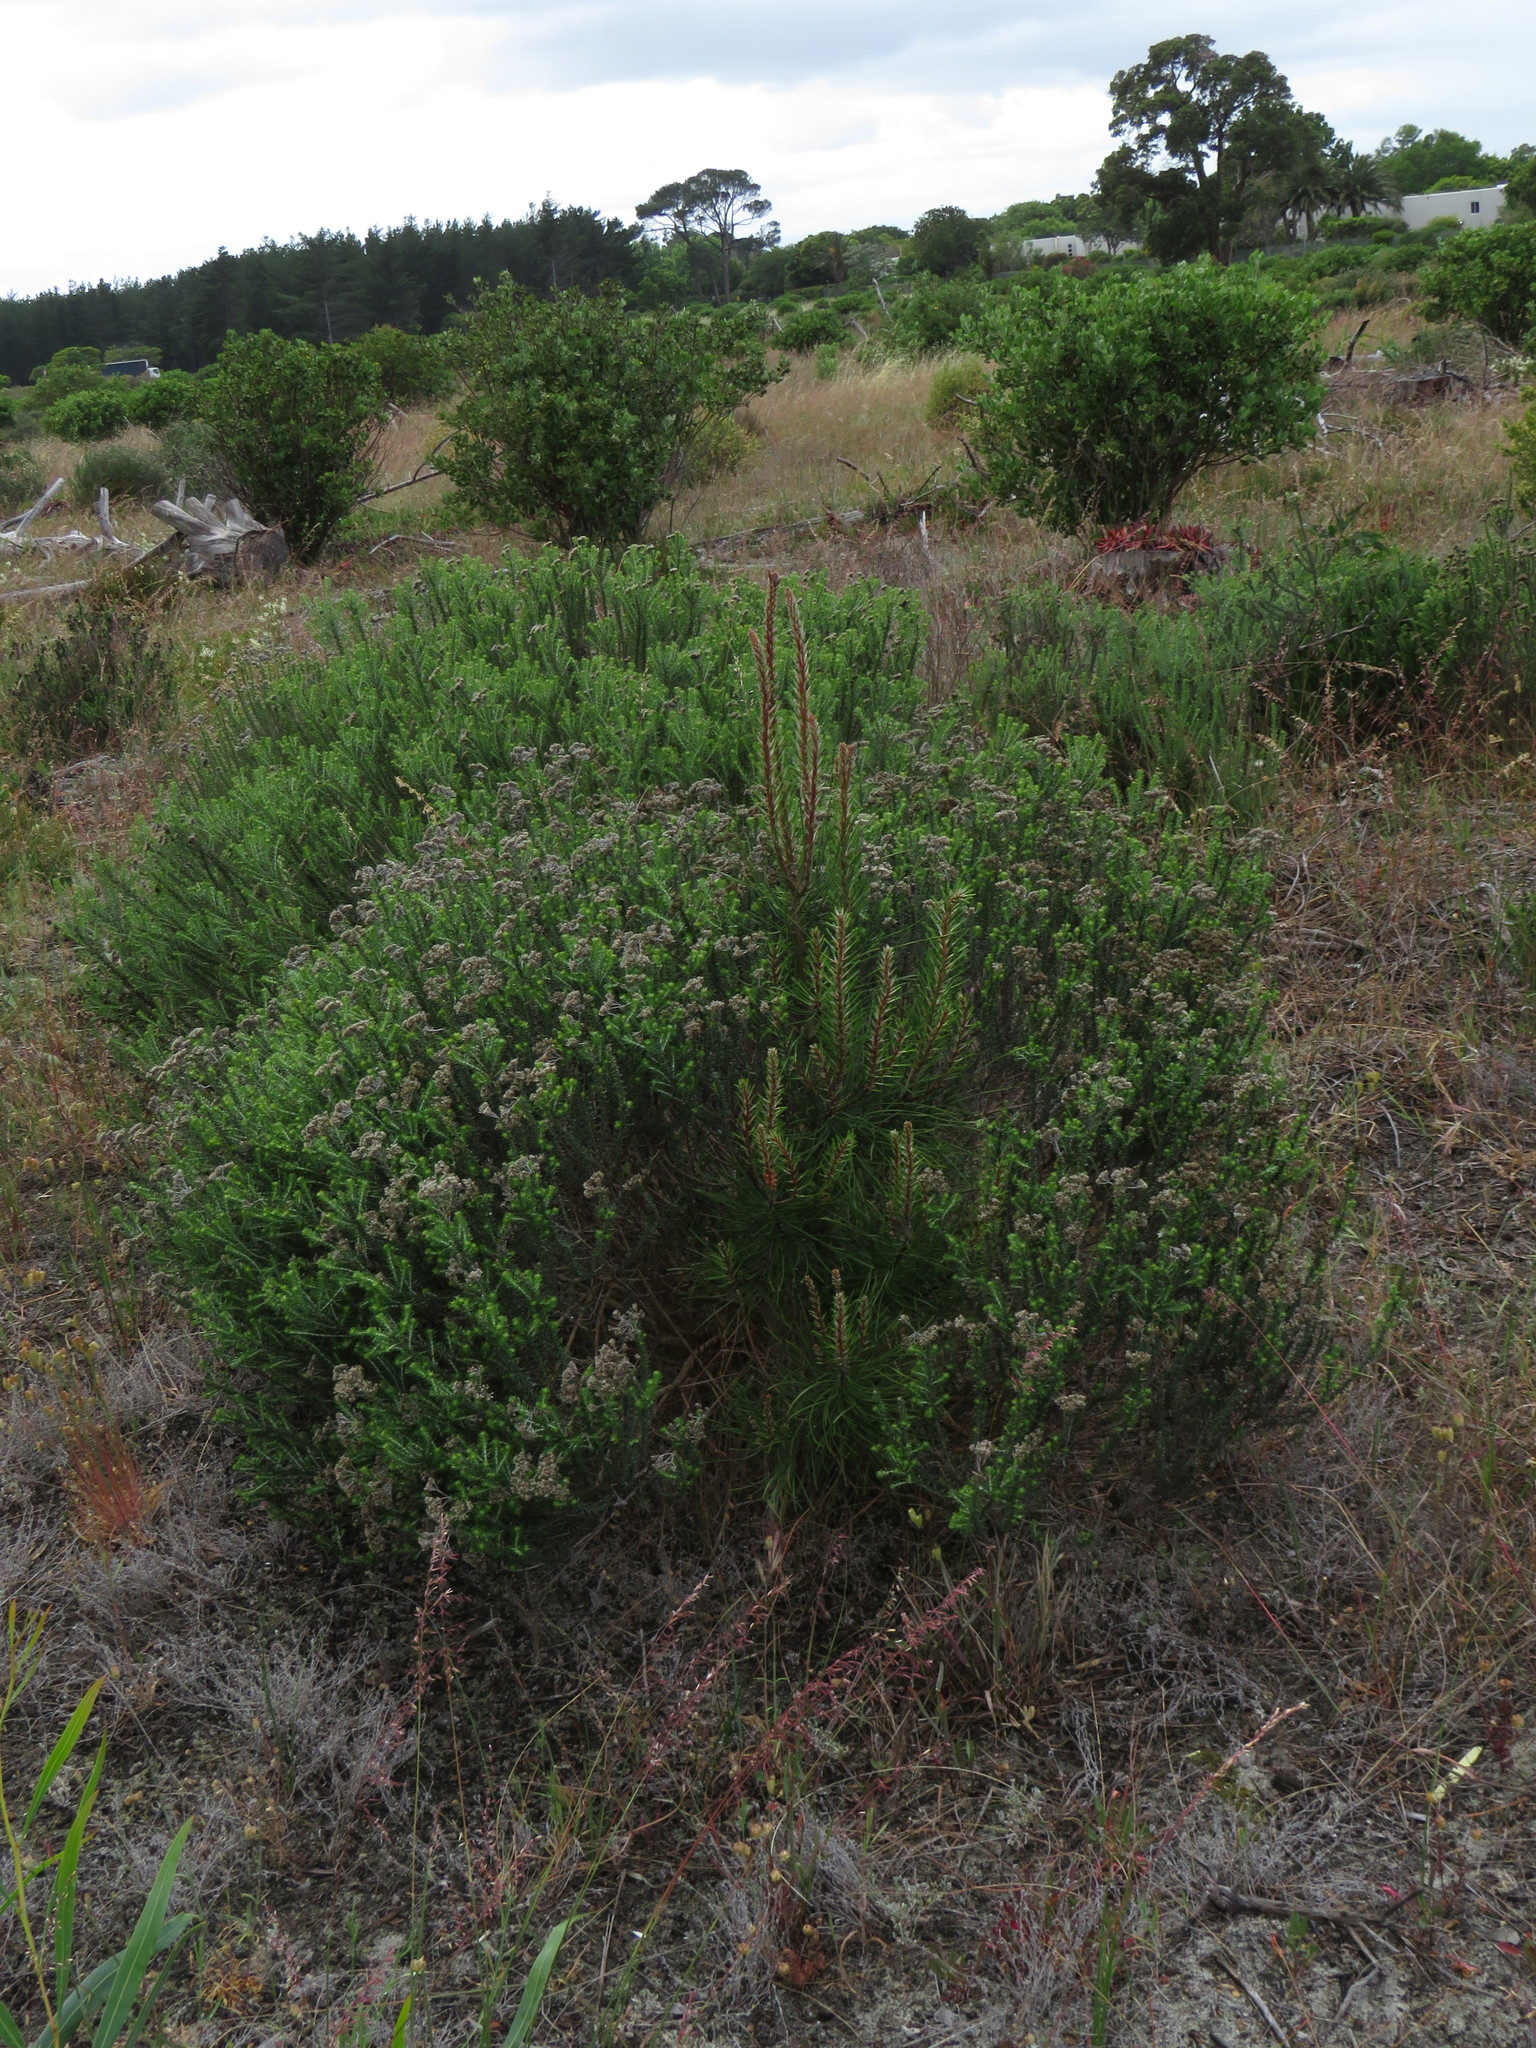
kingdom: Plantae
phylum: Tracheophyta
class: Pinopsida
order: Pinales
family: Pinaceae
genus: Pinus
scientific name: Pinus pinaster
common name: Maritime pine
